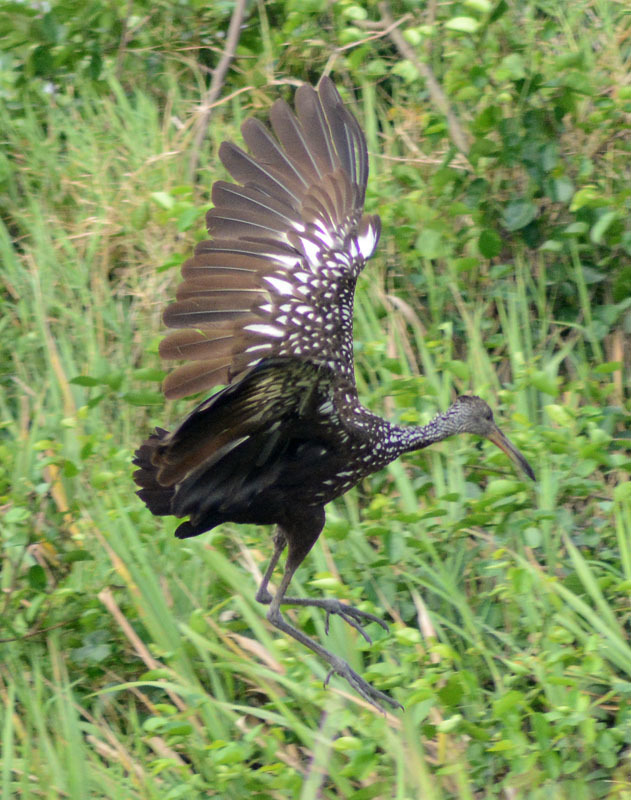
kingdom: Animalia
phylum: Chordata
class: Aves
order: Gruiformes
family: Aramidae
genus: Aramus
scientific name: Aramus guarauna
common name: Limpkin
